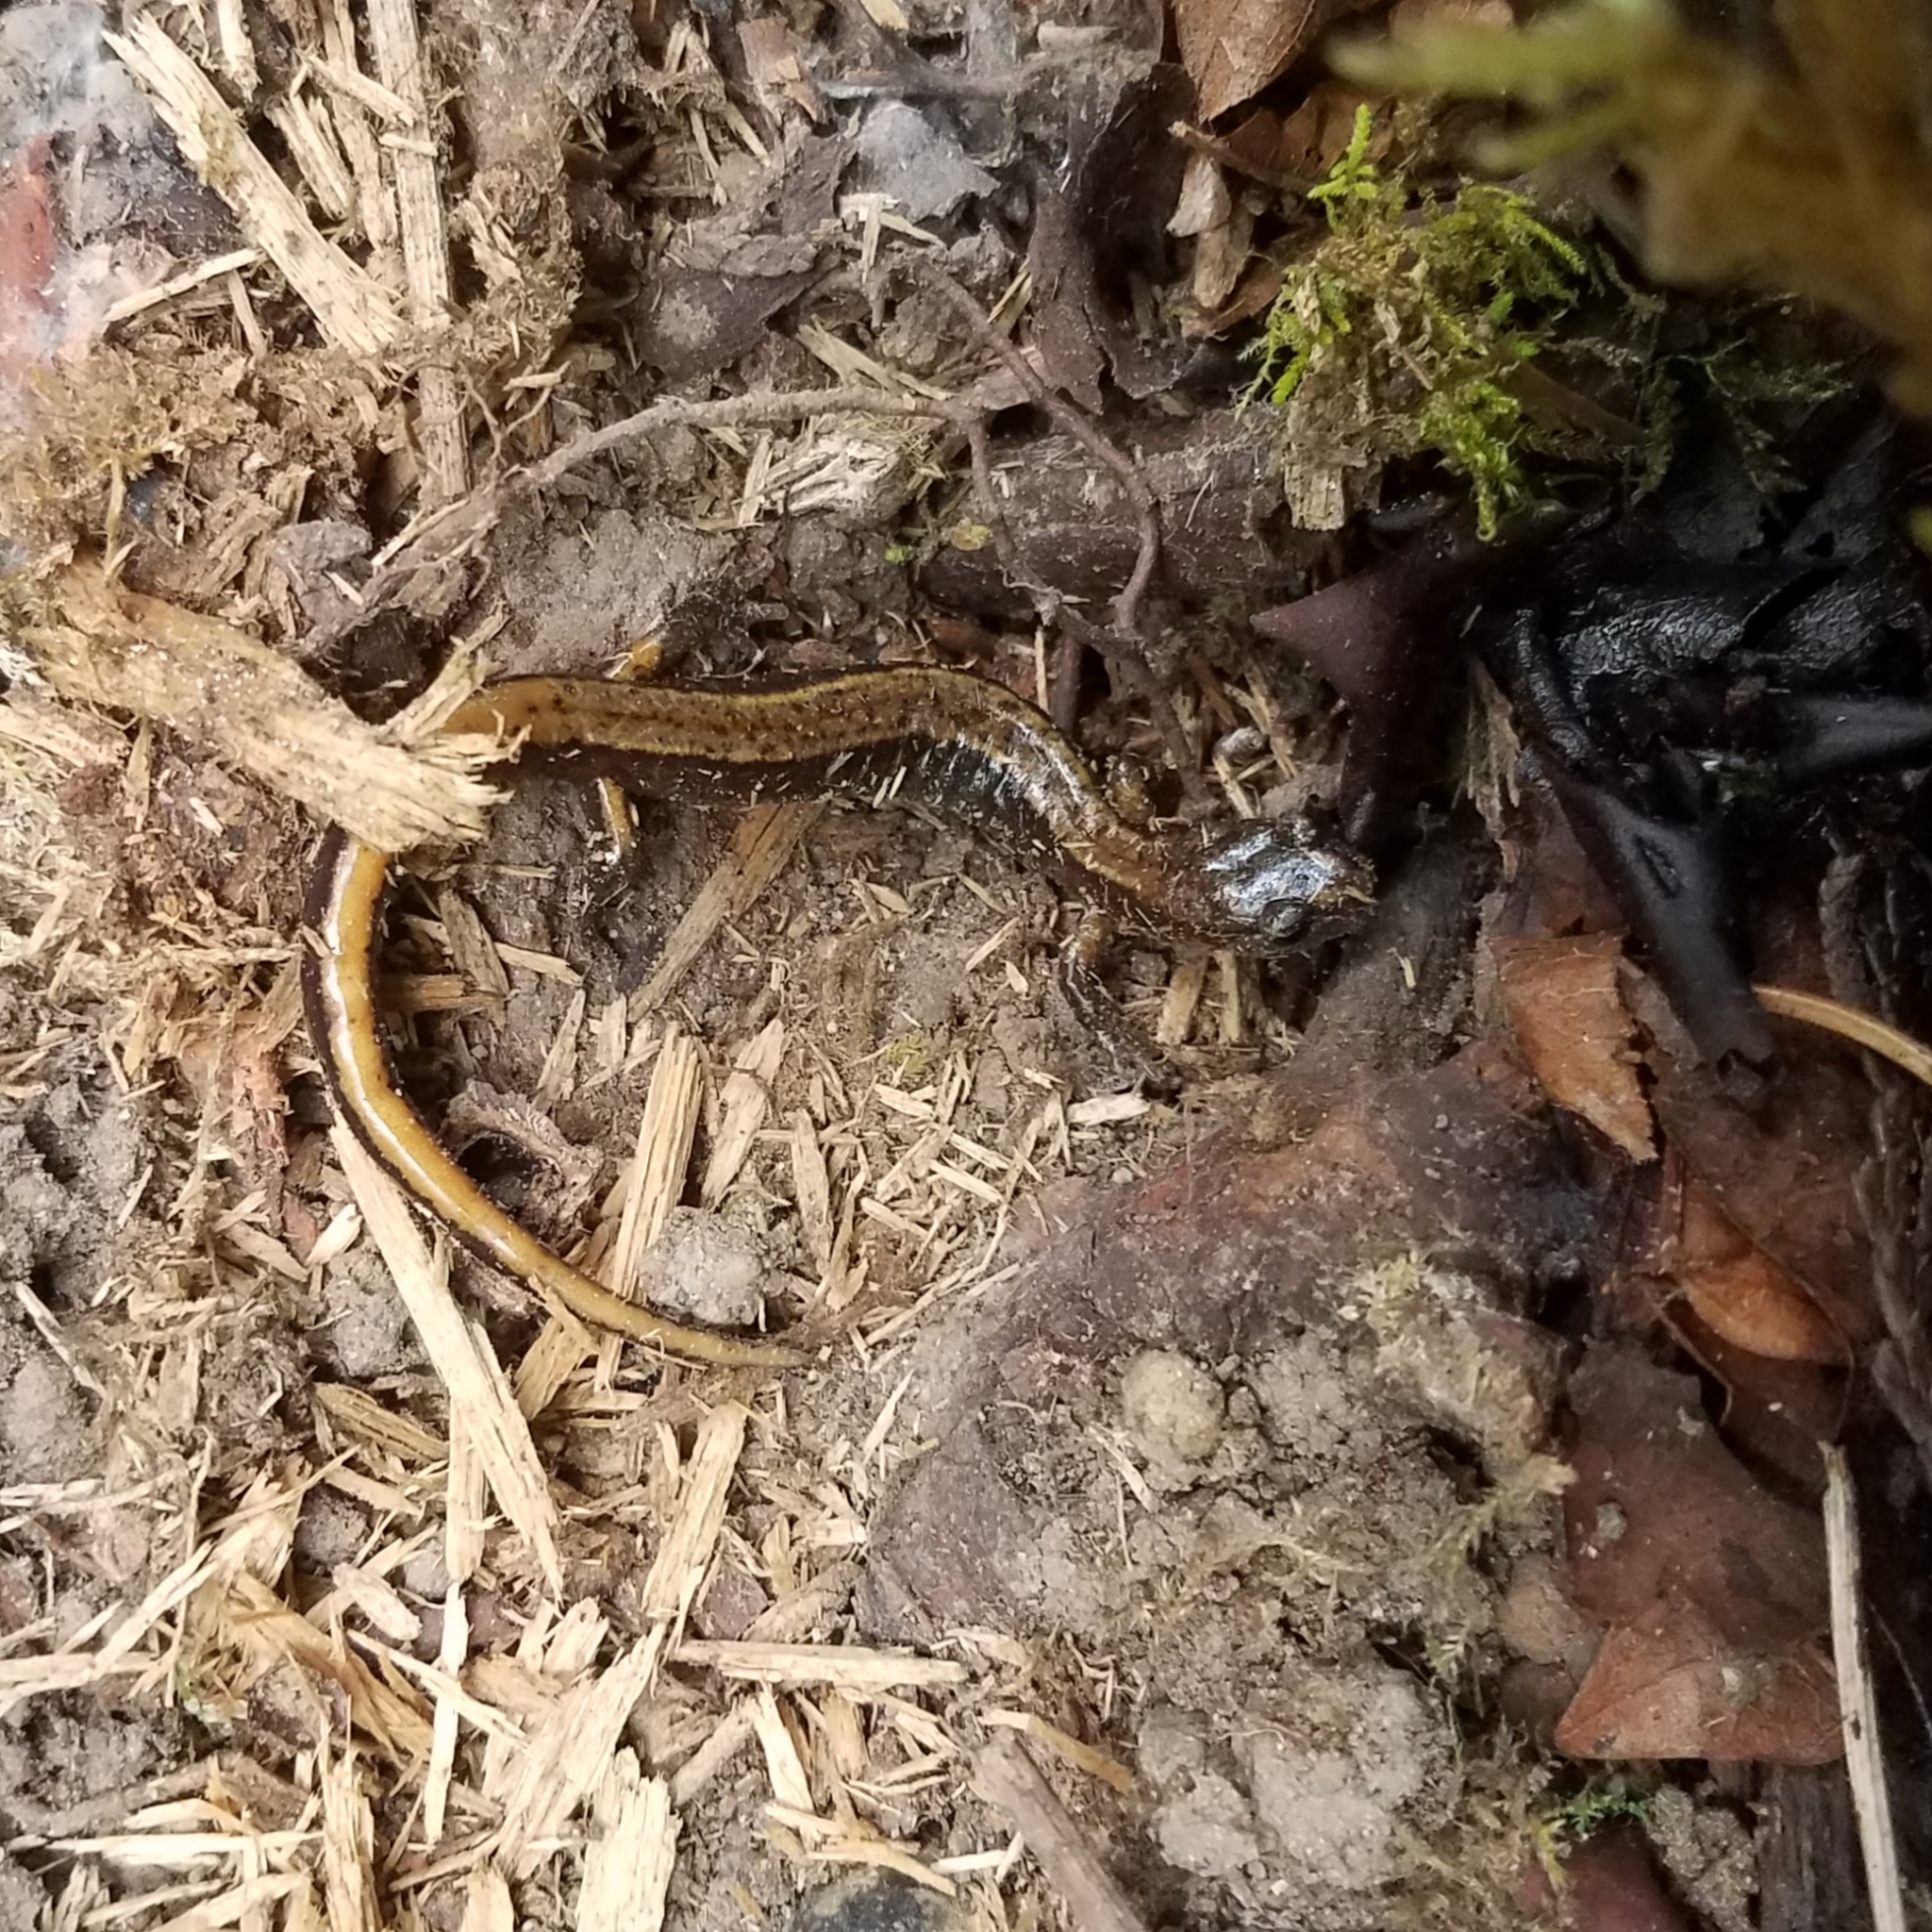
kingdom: Animalia
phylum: Chordata
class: Amphibia
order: Caudata
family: Plethodontidae
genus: Plethodon
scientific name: Plethodon vehiculum
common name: Western red-backed salamander
